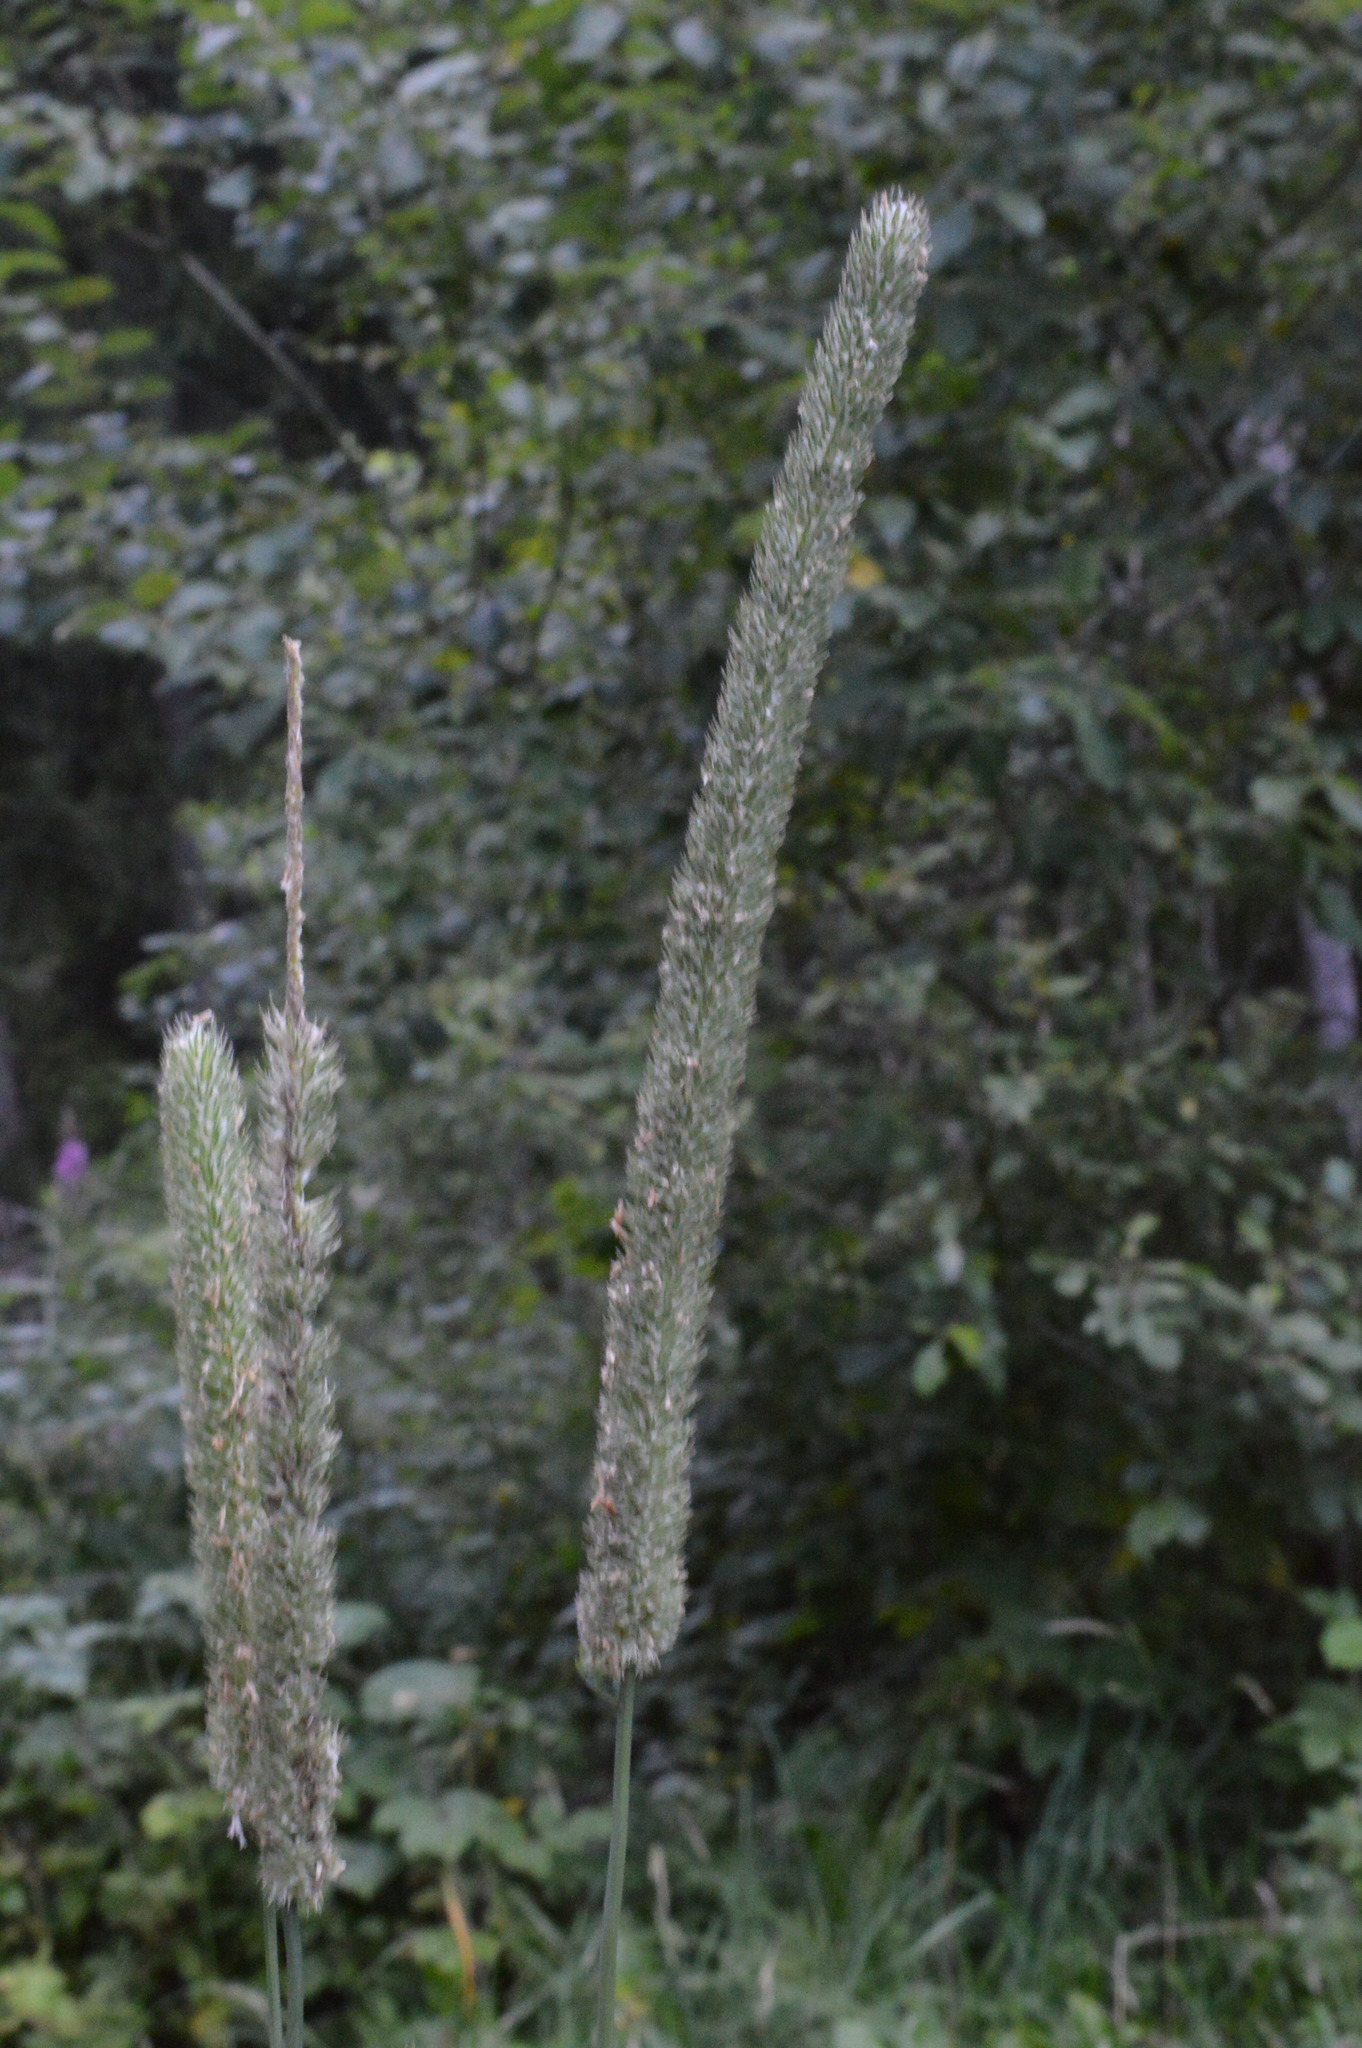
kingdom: Plantae
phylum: Tracheophyta
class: Liliopsida
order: Poales
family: Poaceae
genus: Phleum
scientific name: Phleum pratense
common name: Timothy grass
